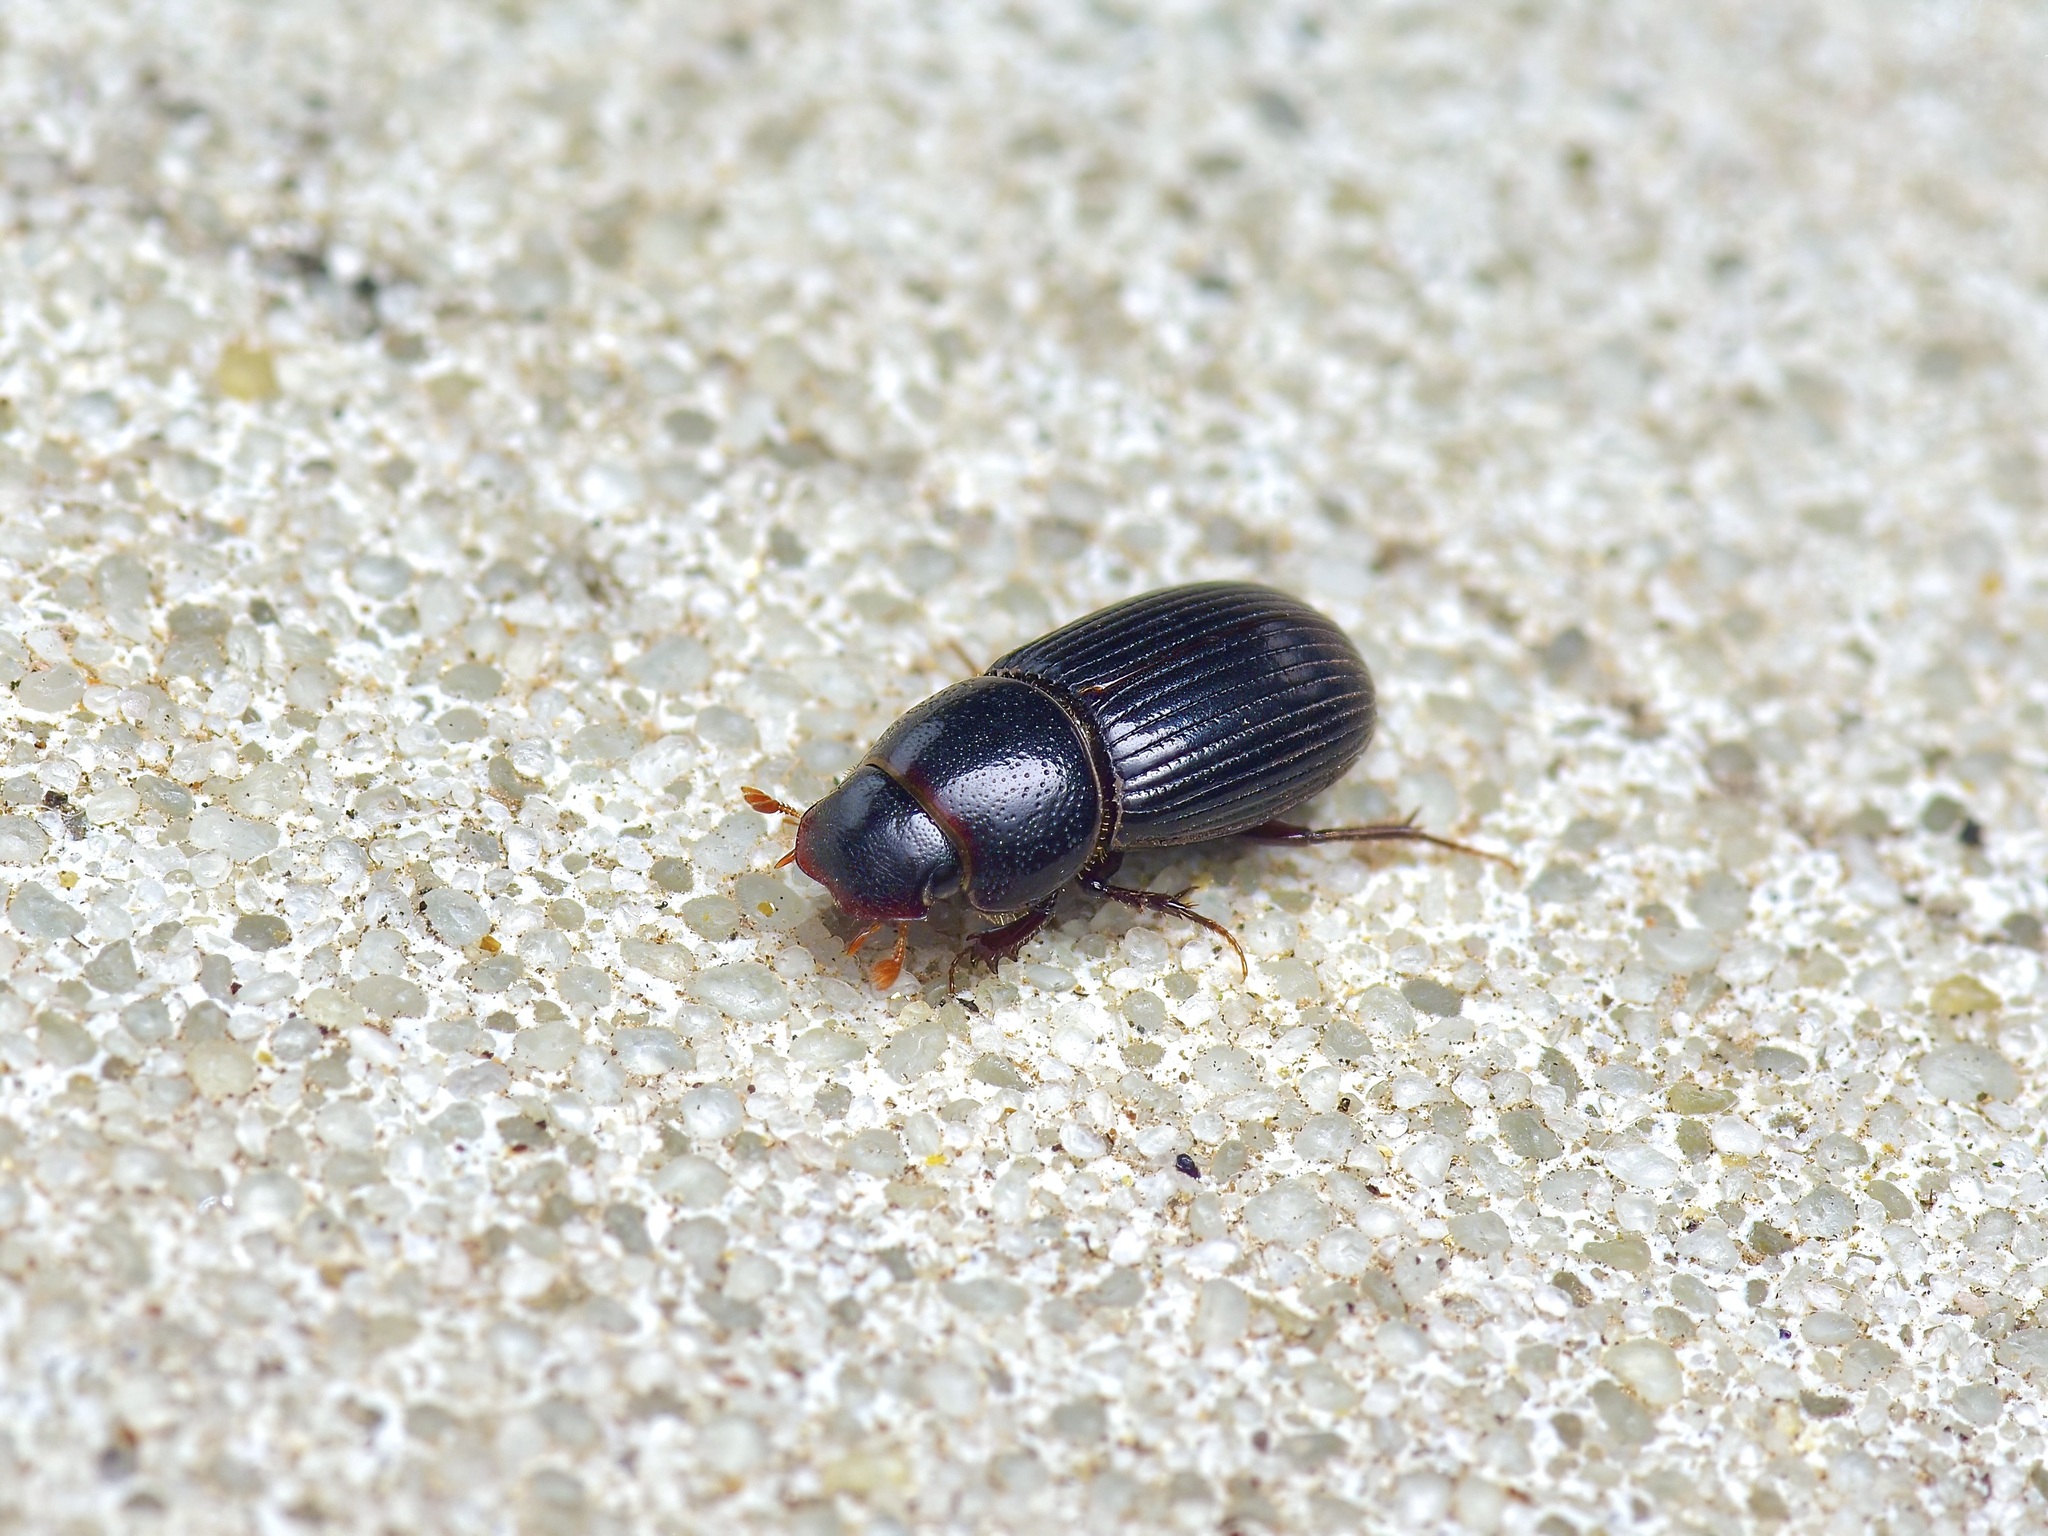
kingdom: Animalia
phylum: Arthropoda
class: Insecta
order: Coleoptera
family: Scarabaeidae
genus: Ataenius
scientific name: Ataenius platensis
